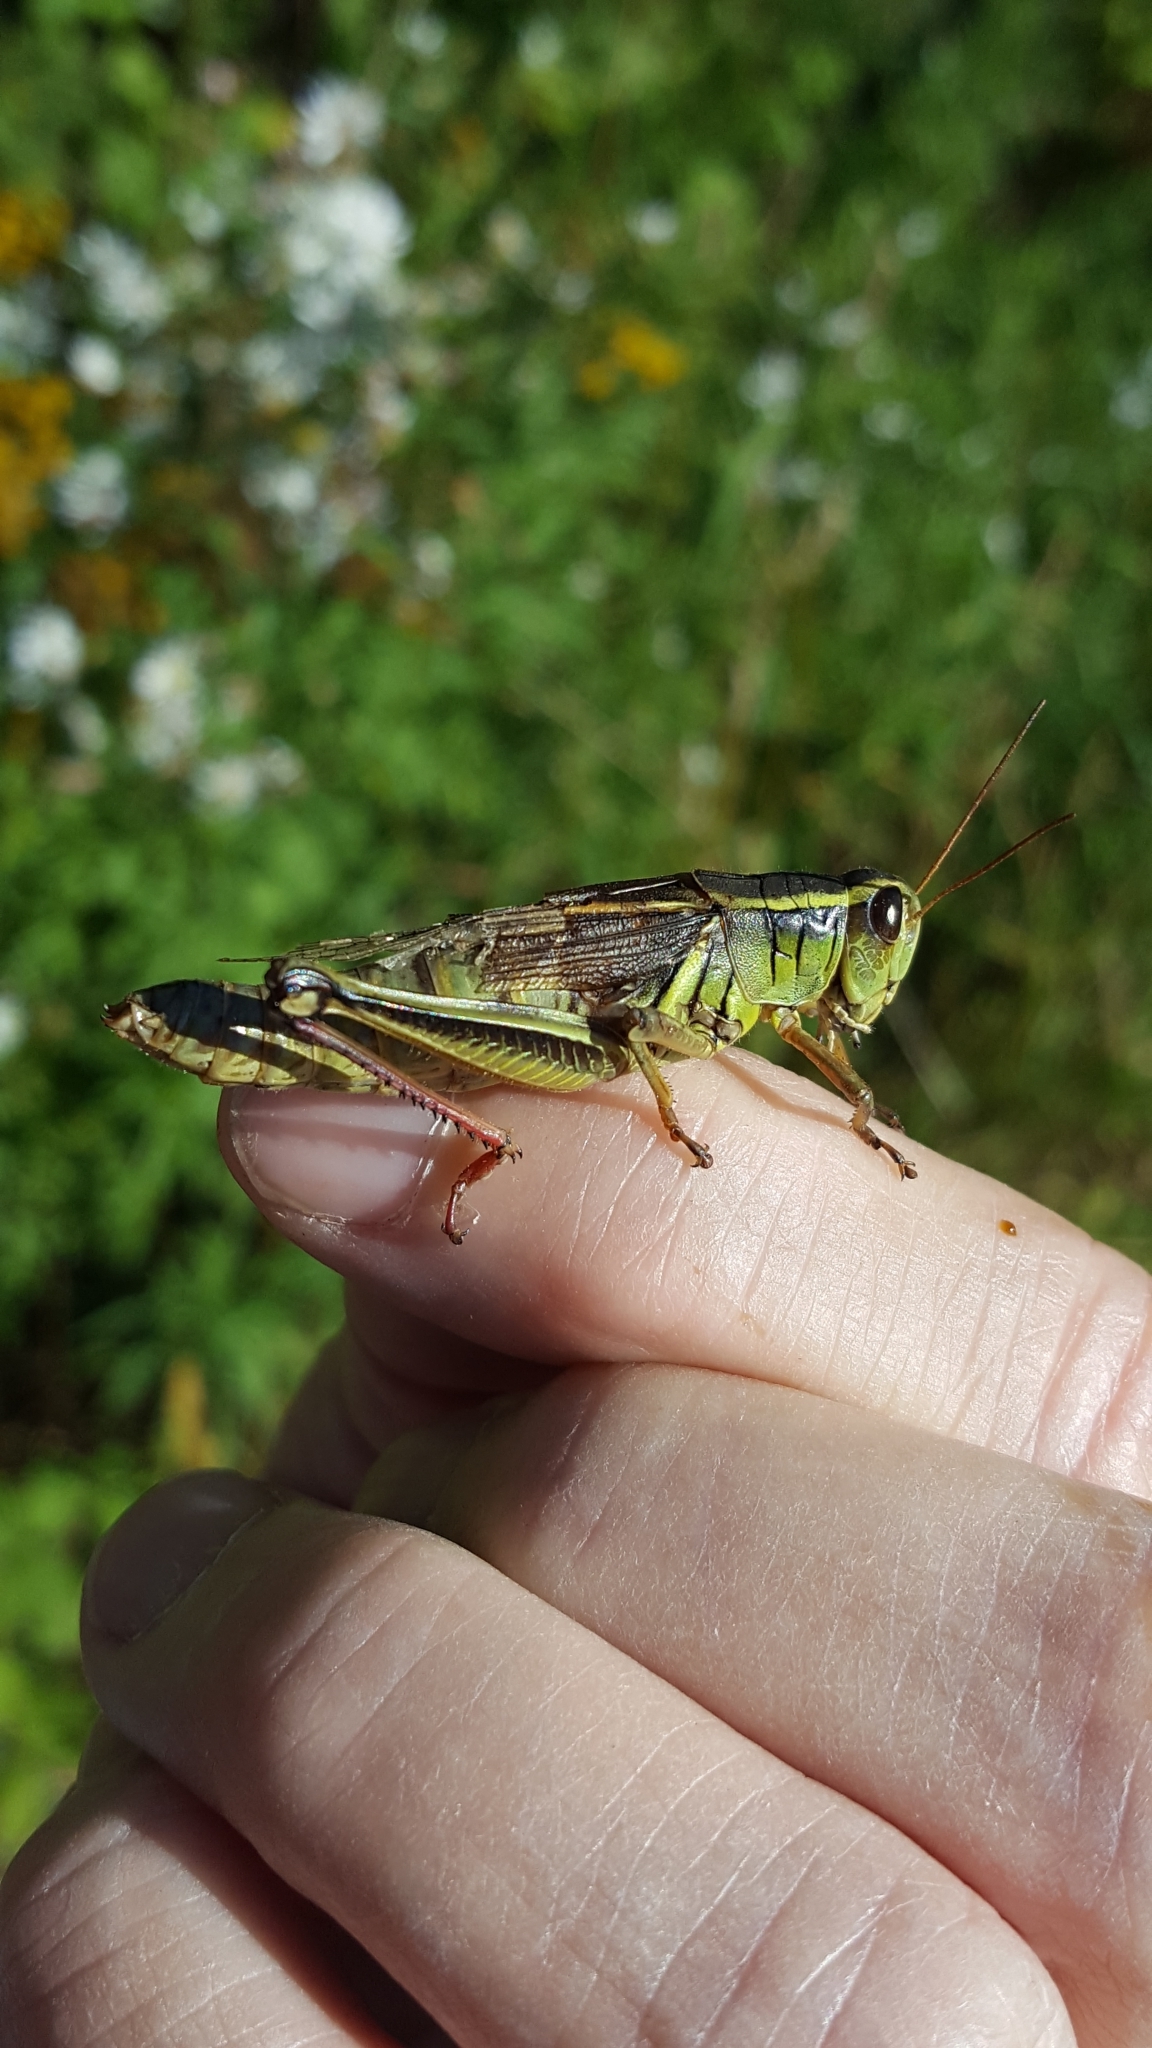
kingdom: Animalia
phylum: Arthropoda
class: Insecta
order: Orthoptera
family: Acrididae
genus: Melanoplus
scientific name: Melanoplus bivittatus
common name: Two-striped grasshopper
